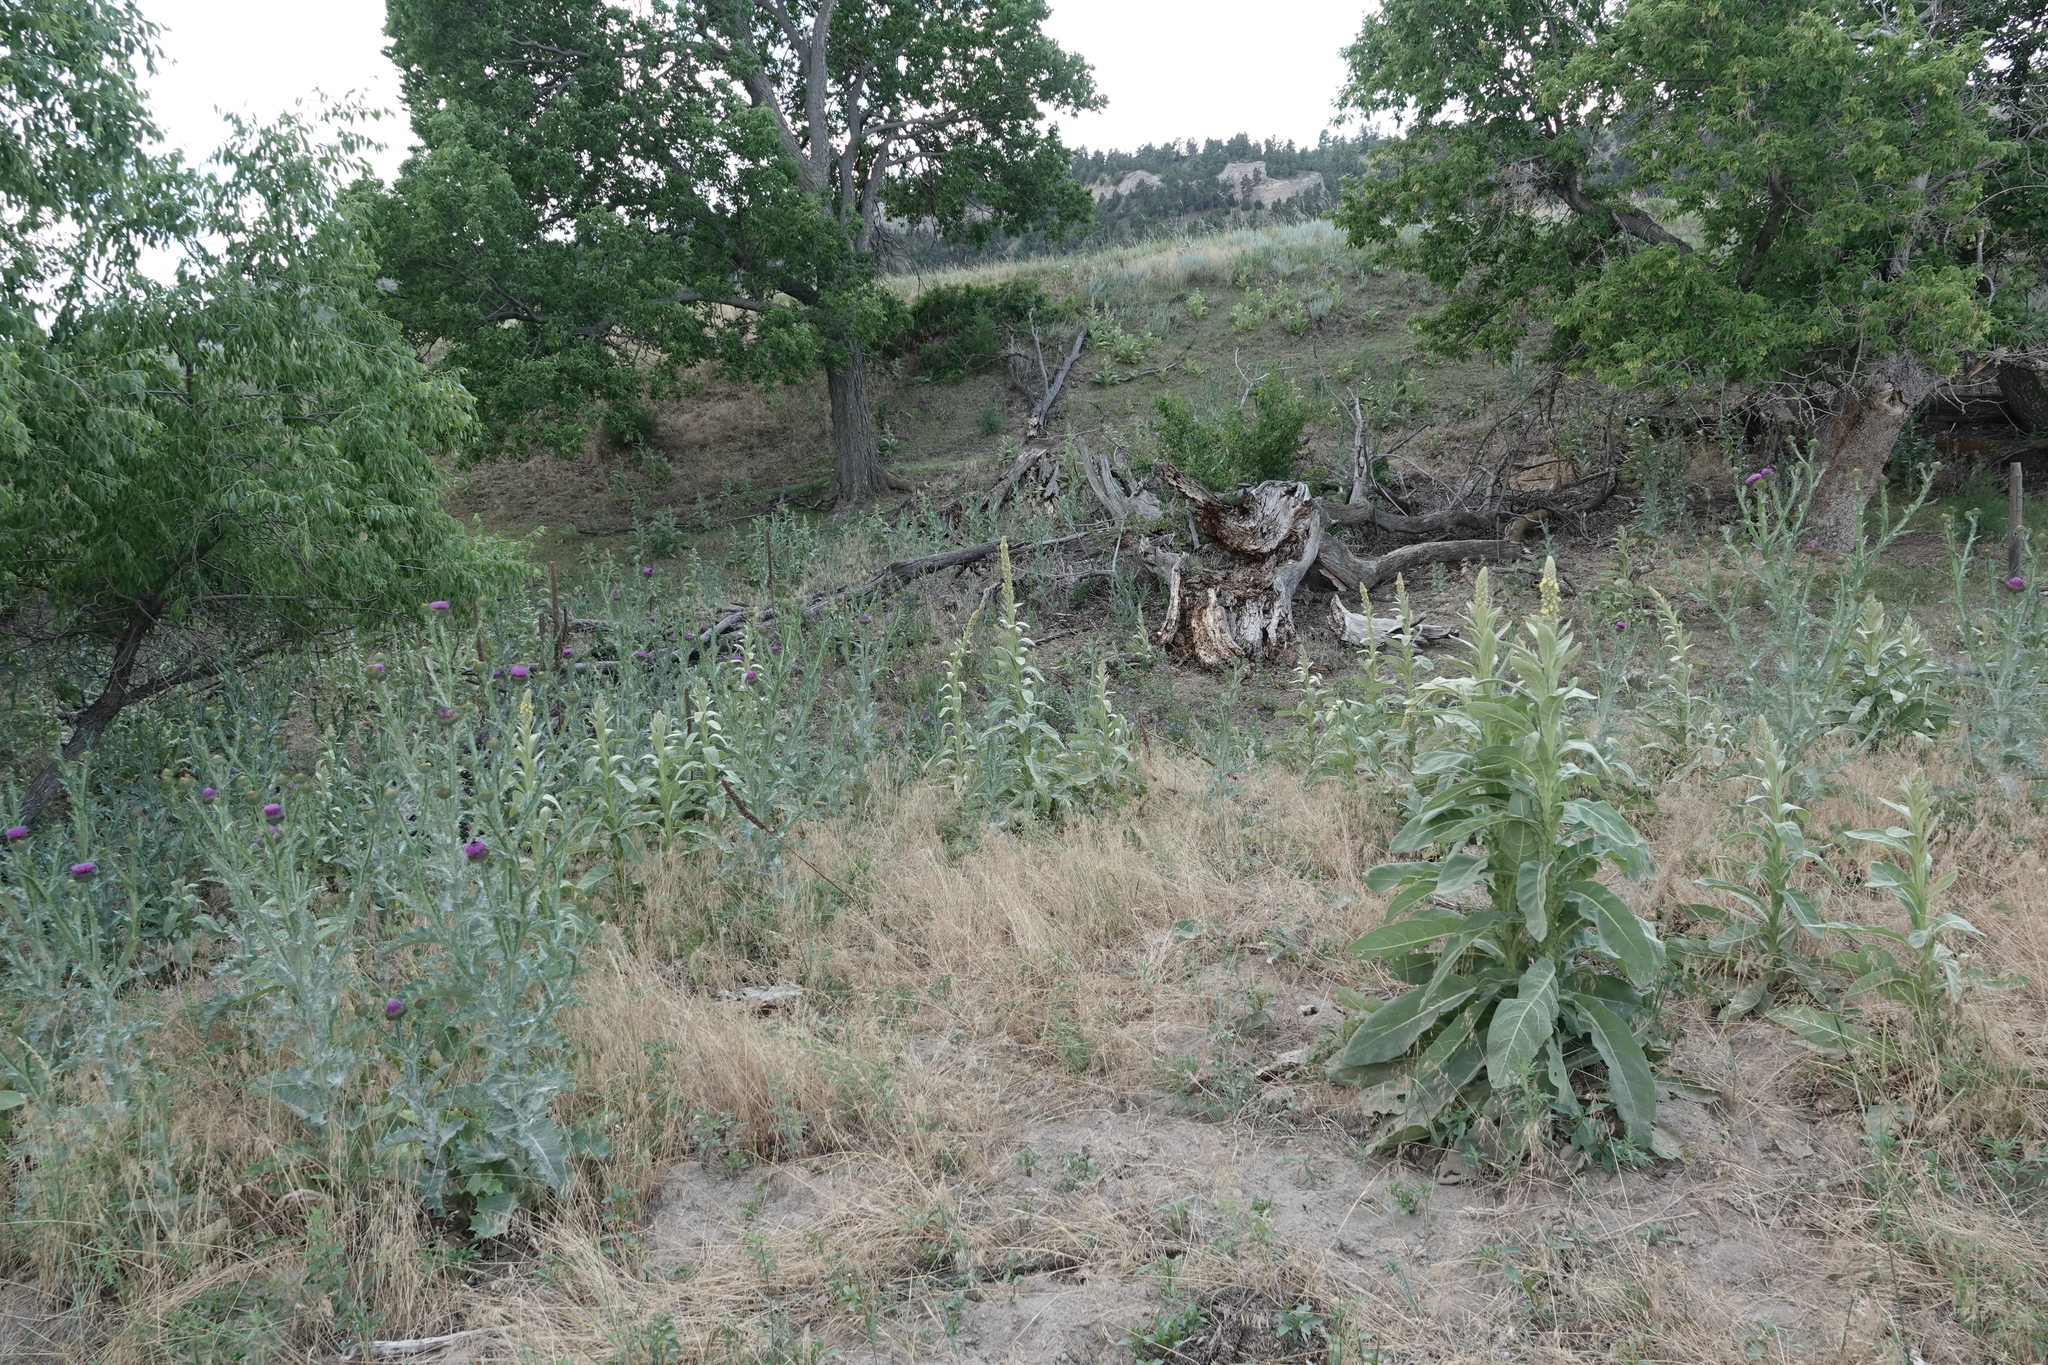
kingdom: Plantae
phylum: Tracheophyta
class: Magnoliopsida
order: Lamiales
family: Scrophulariaceae
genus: Verbascum
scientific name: Verbascum thapsus
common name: Common mullein
